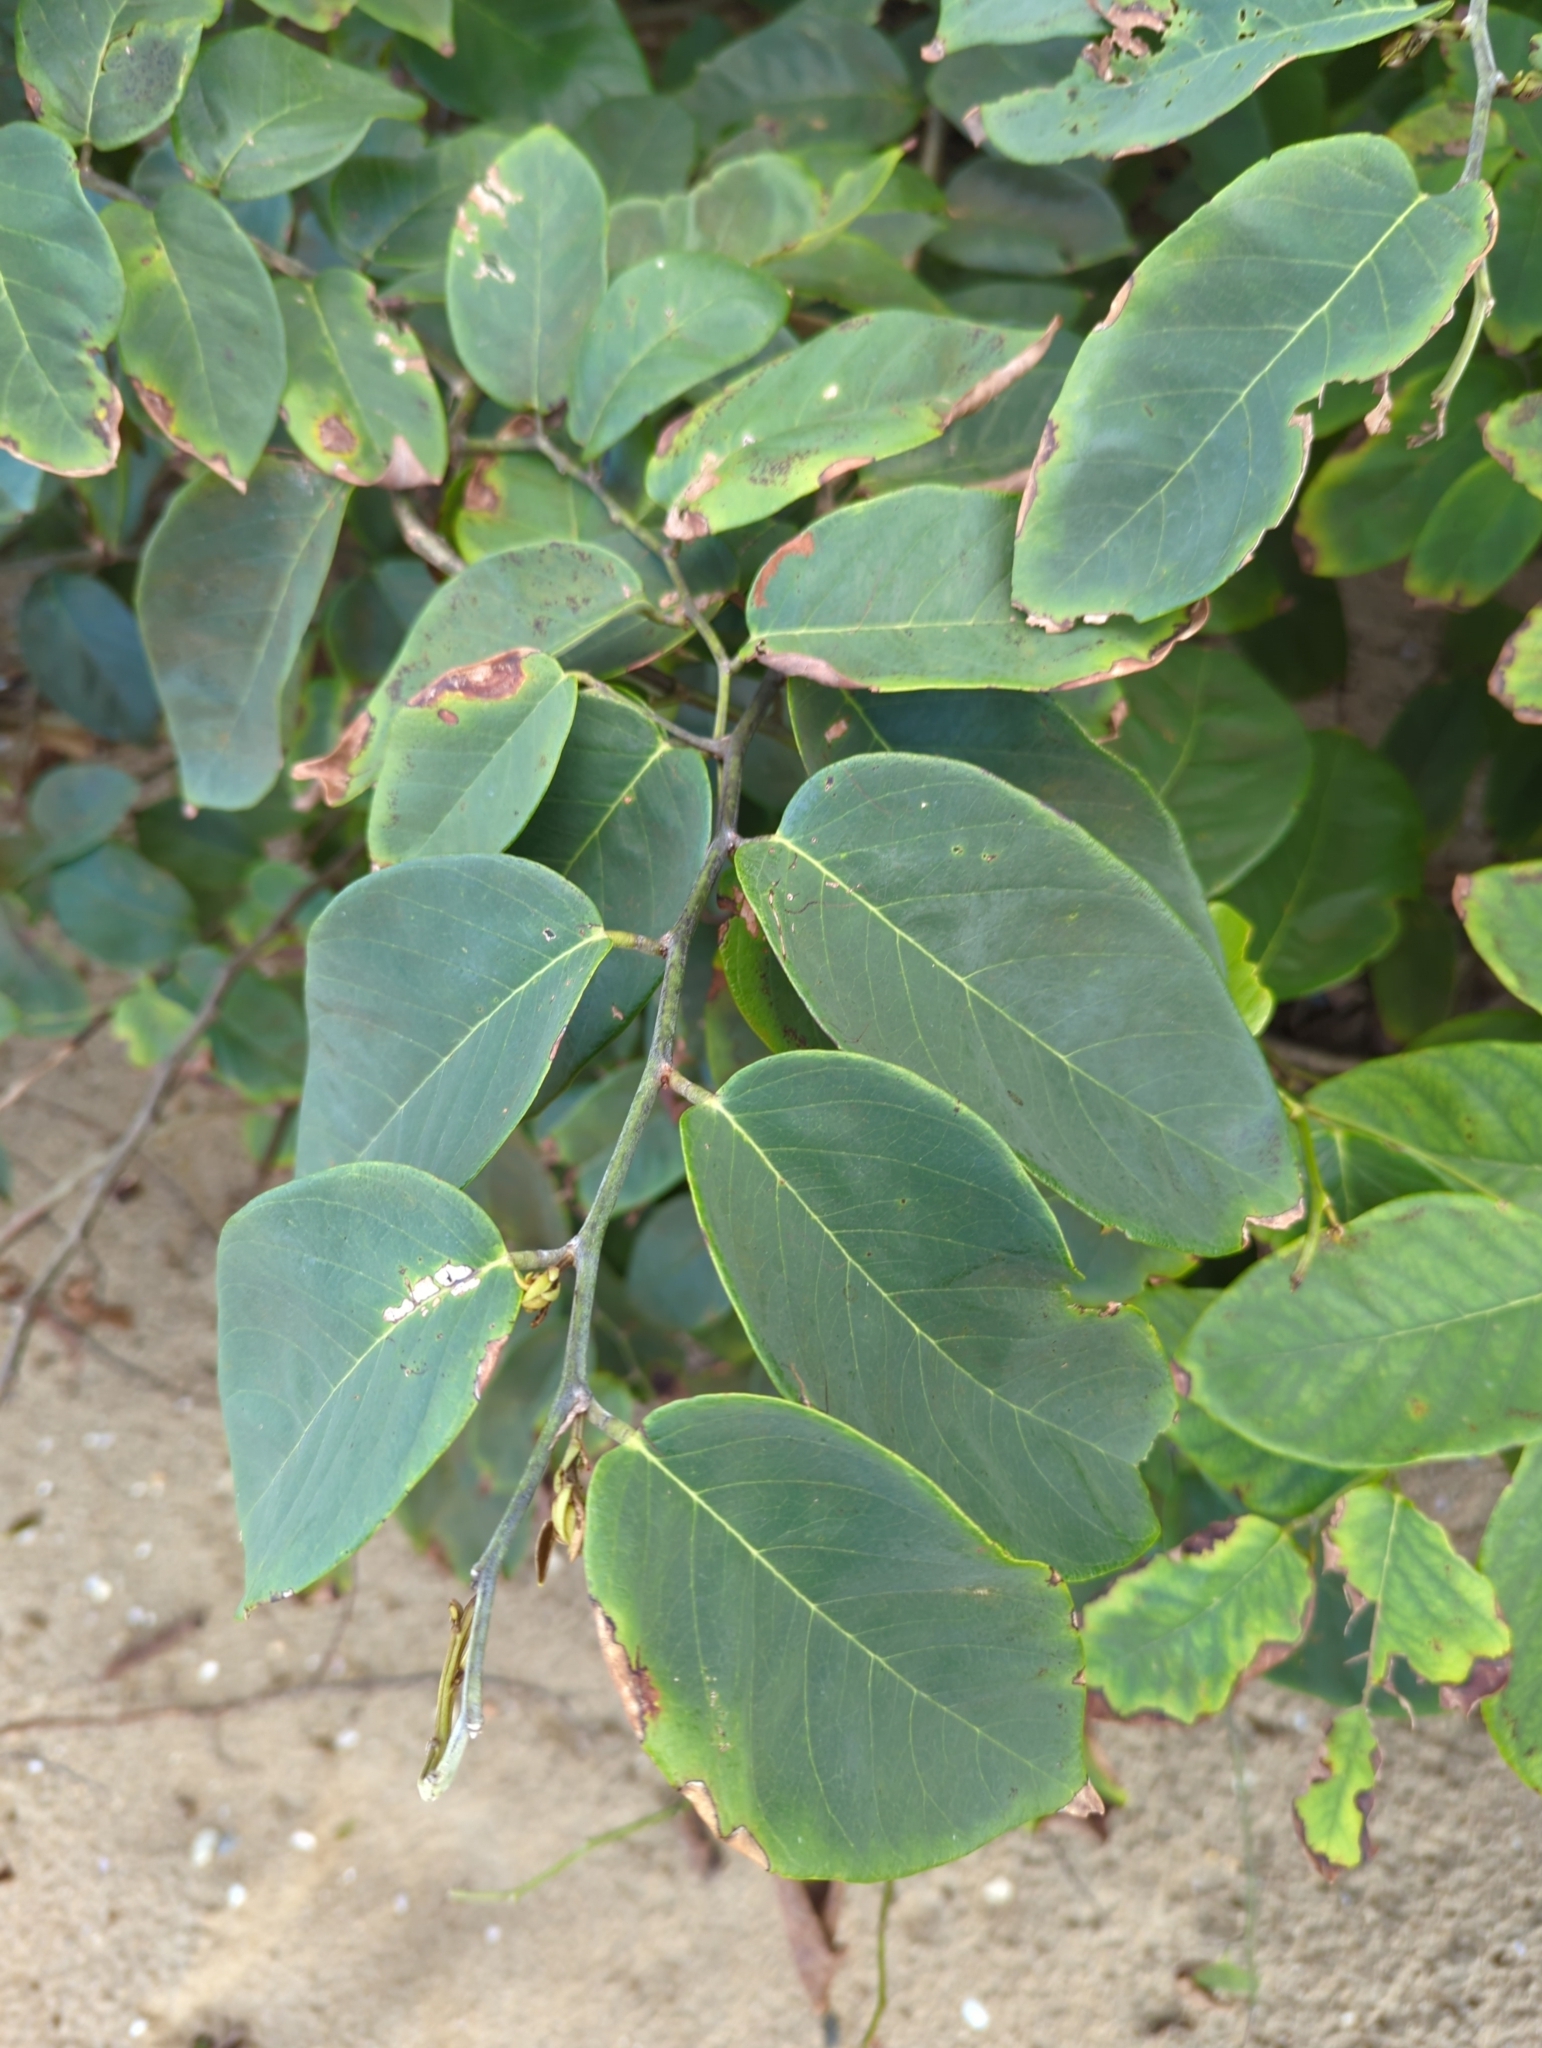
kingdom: Plantae
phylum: Tracheophyta
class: Magnoliopsida
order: Fabales
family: Fabaceae
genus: Dalbergia
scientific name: Dalbergia ecastaphyllum
